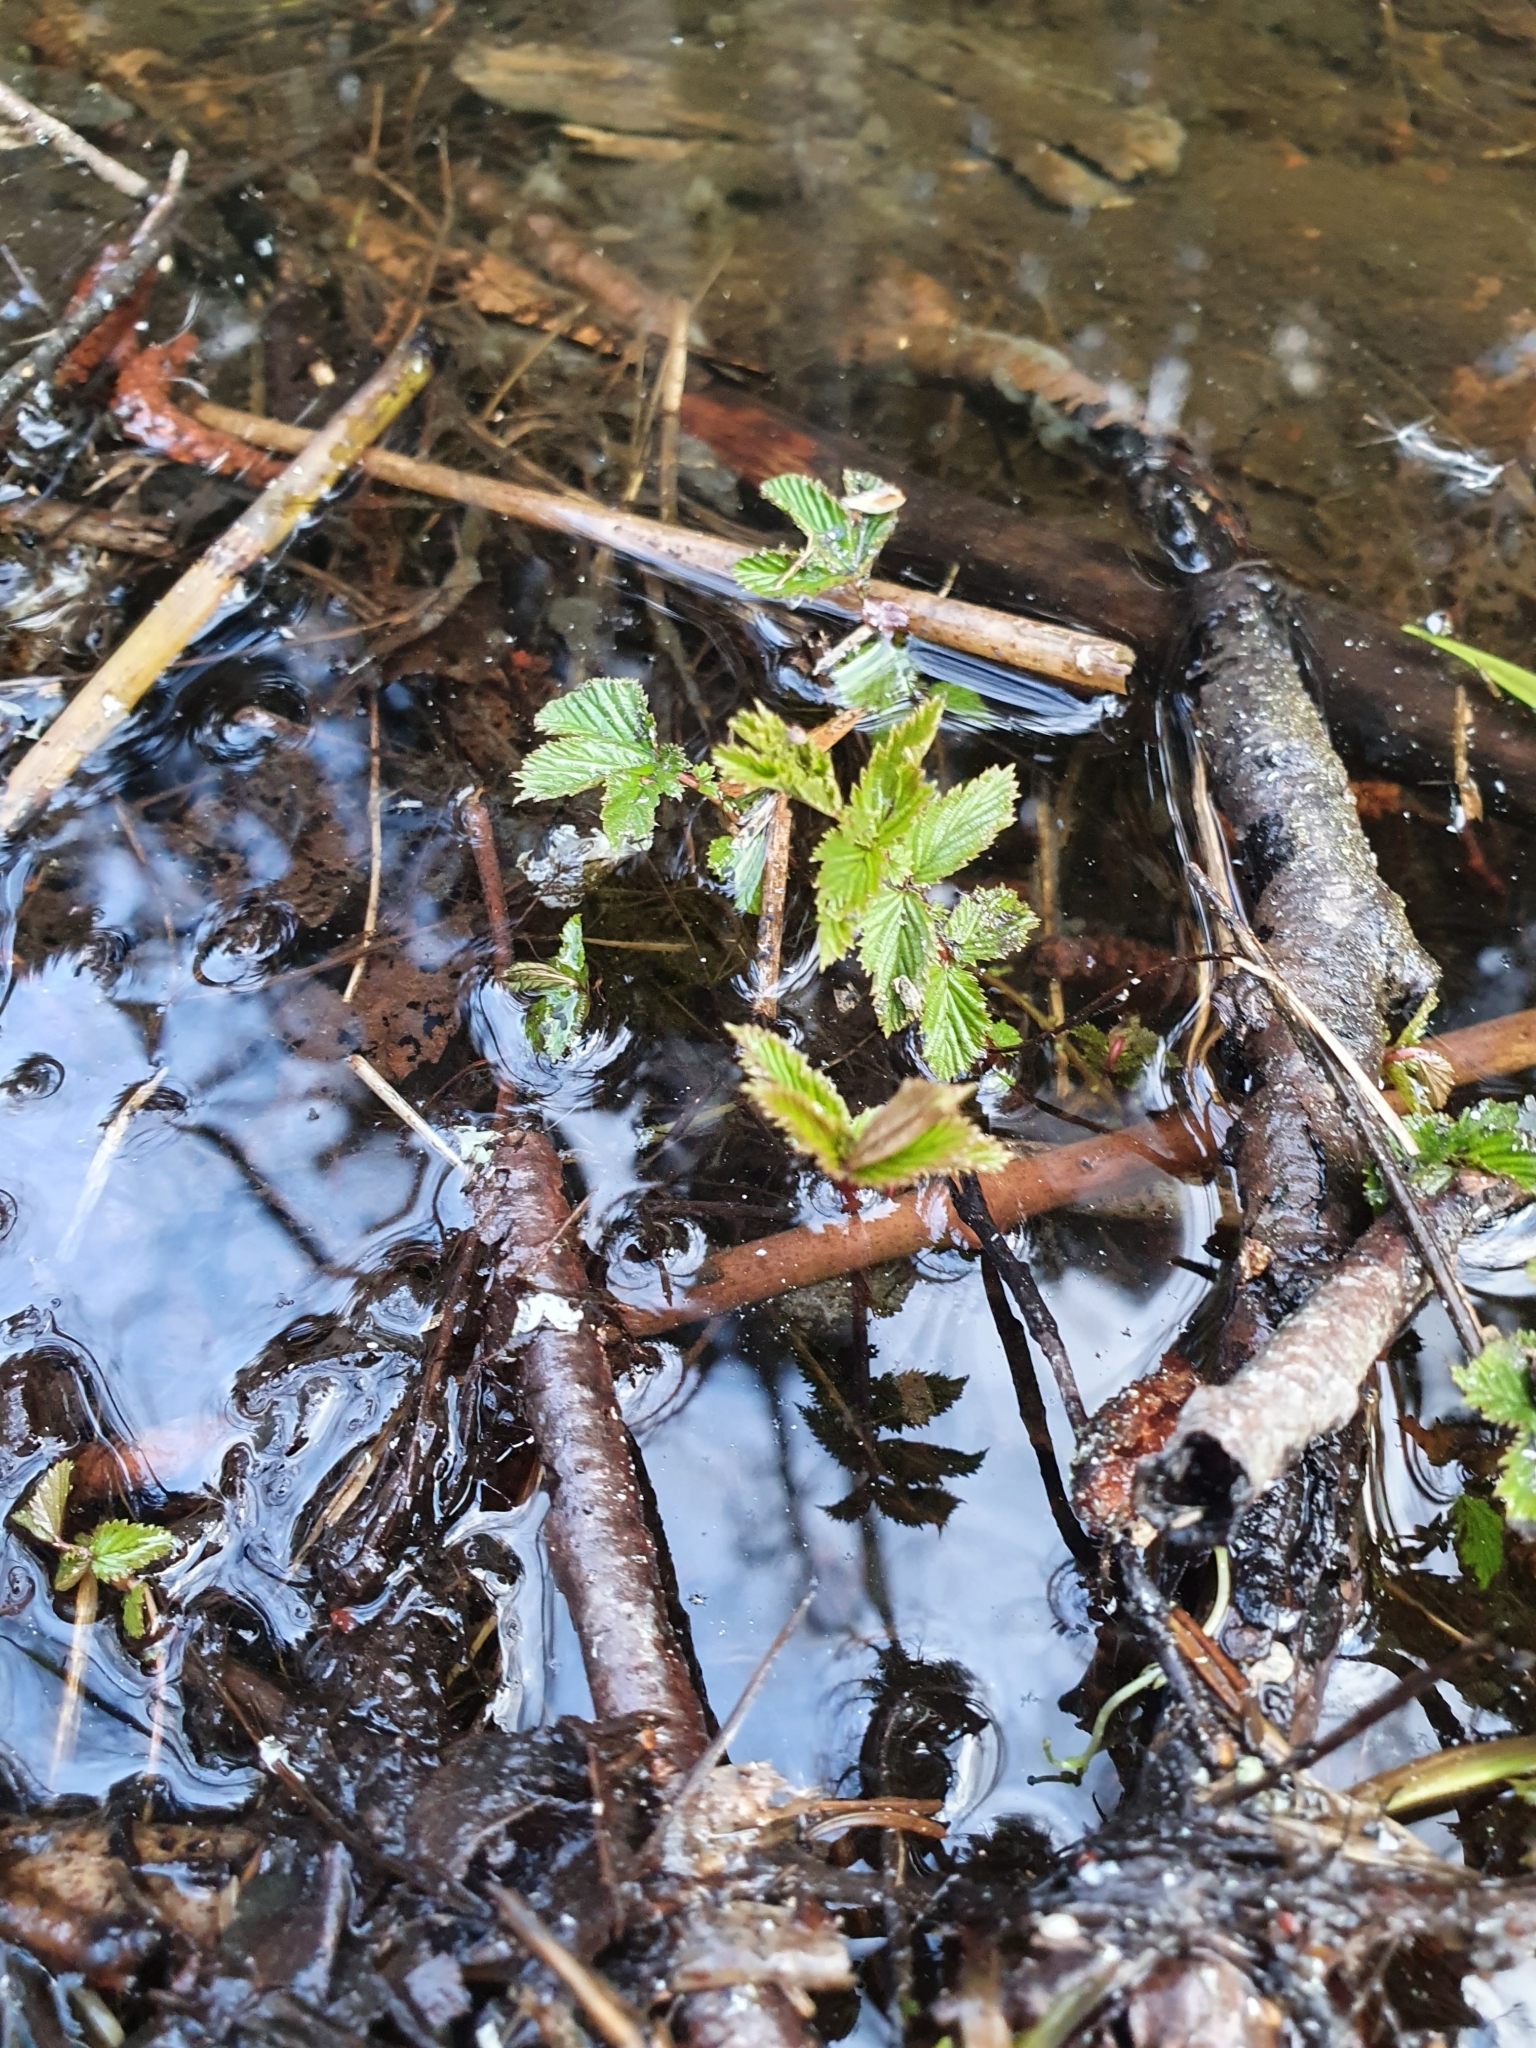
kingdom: Plantae
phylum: Tracheophyta
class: Magnoliopsida
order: Rosales
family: Rosaceae
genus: Filipendula
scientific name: Filipendula ulmaria
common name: Meadowsweet
